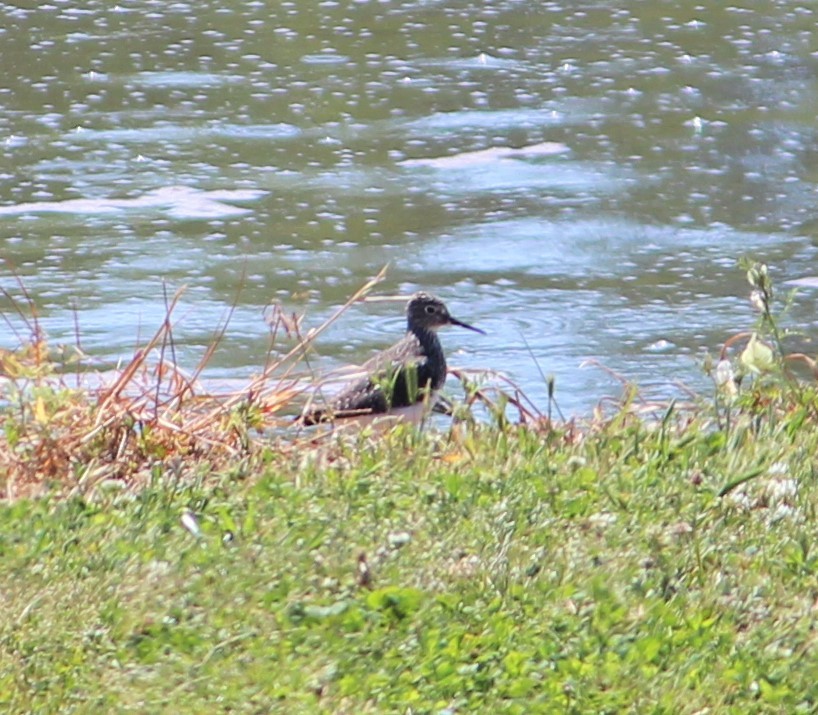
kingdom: Animalia
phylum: Chordata
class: Aves
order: Charadriiformes
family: Scolopacidae
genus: Tringa
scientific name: Tringa solitaria
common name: Solitary sandpiper
